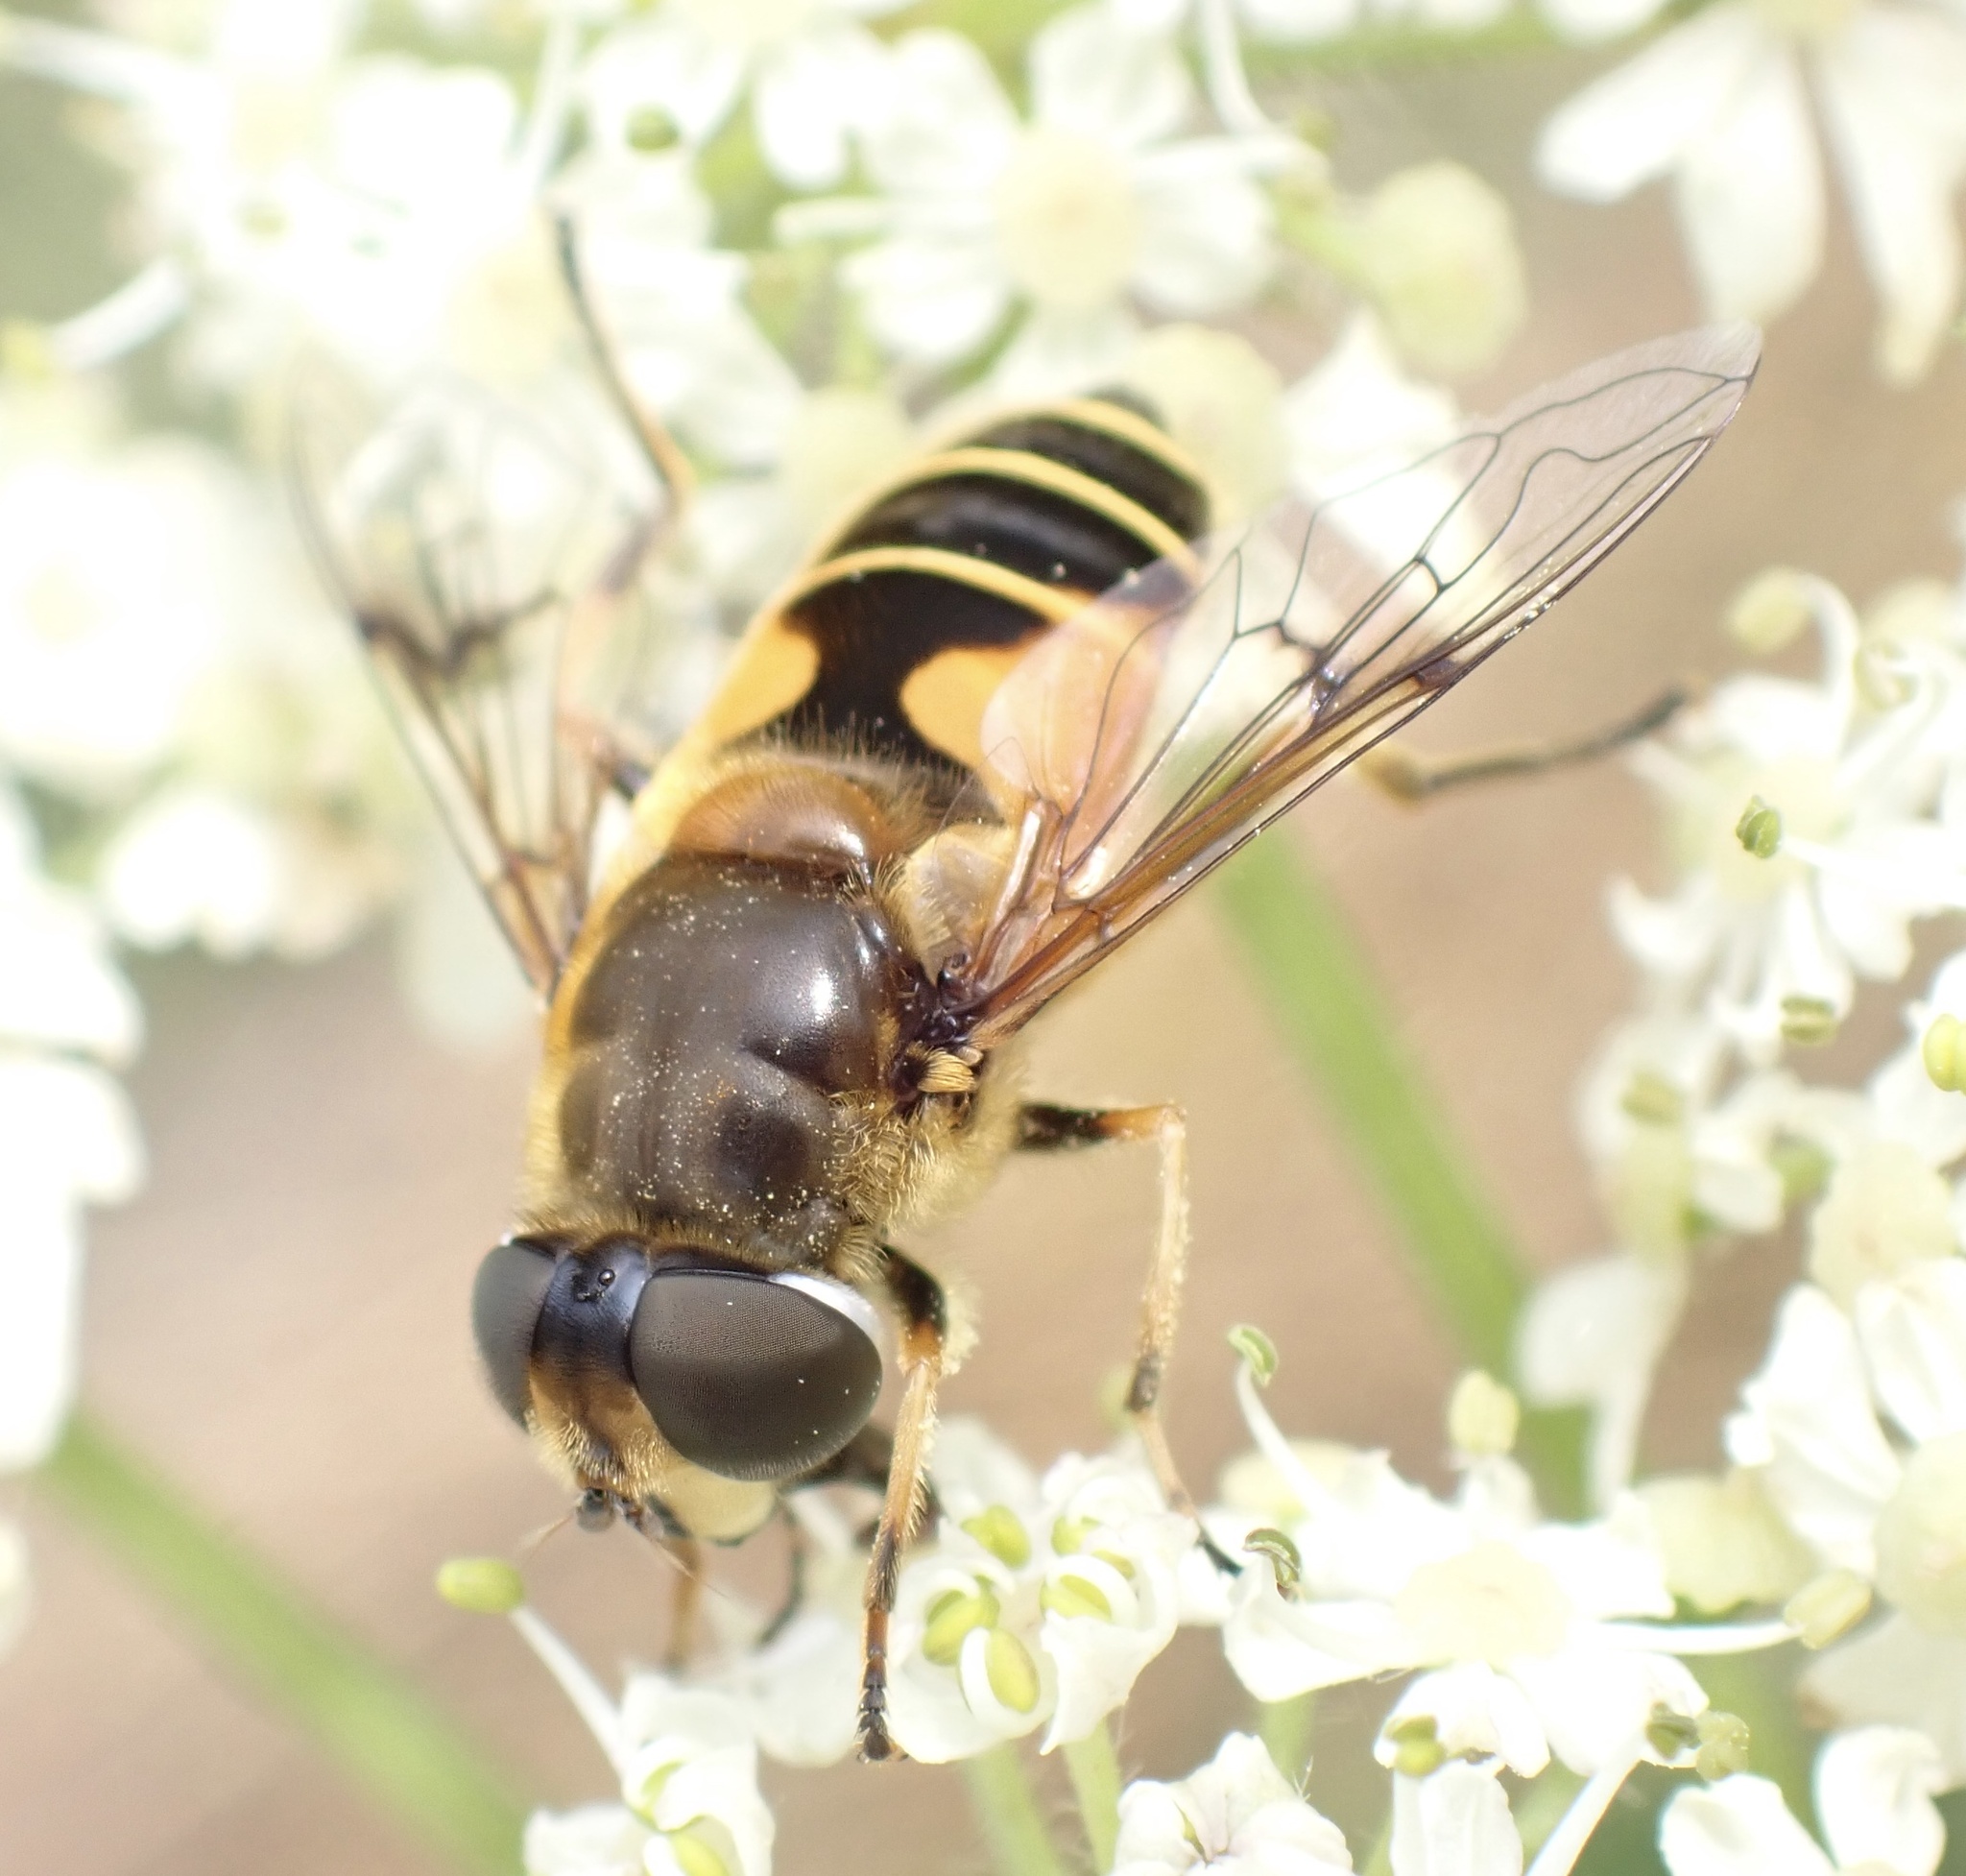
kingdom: Animalia
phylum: Arthropoda
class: Insecta
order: Diptera
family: Syrphidae
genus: Cheilosia
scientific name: Cheilosia morio
